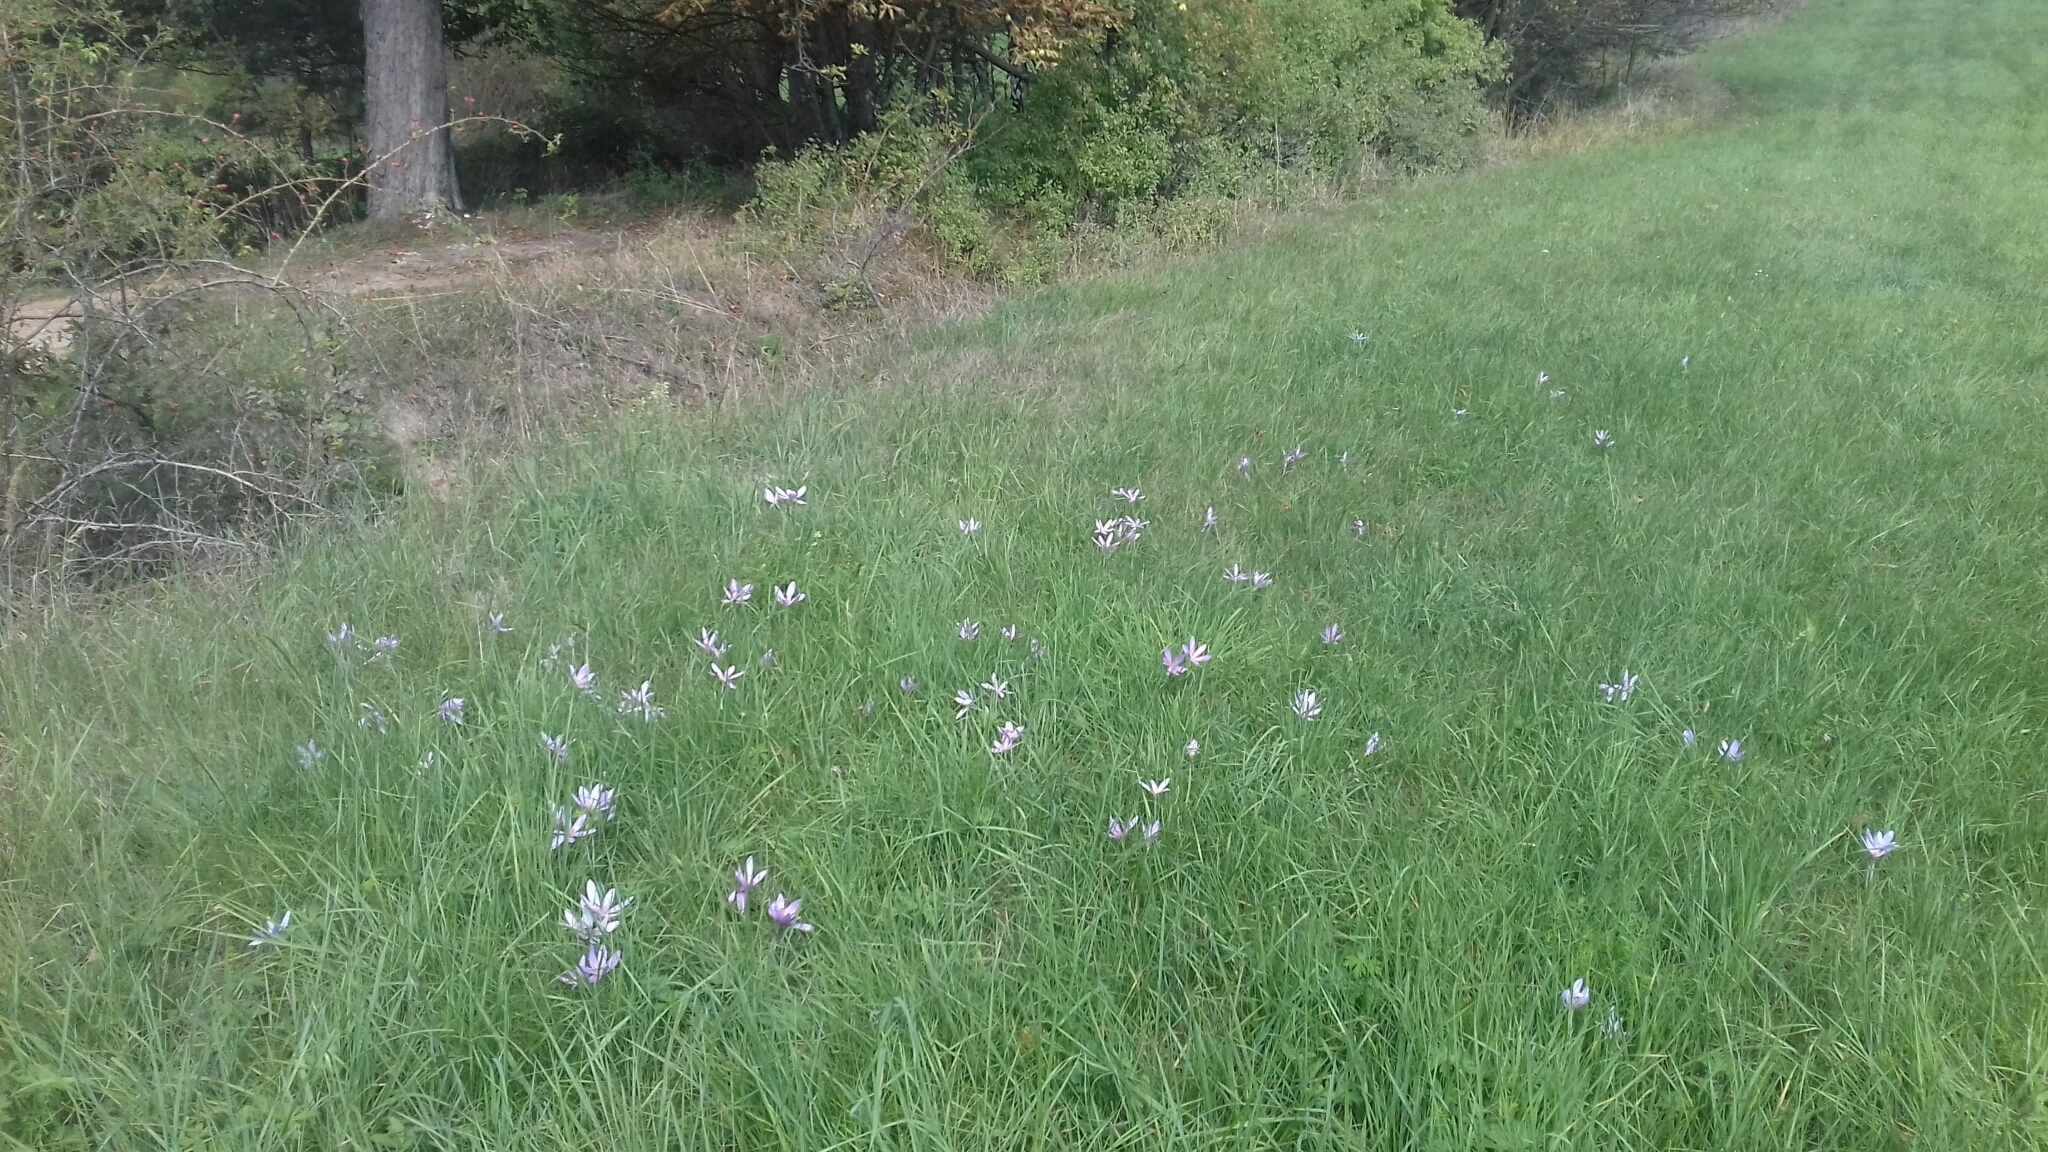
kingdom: Plantae
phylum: Tracheophyta
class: Liliopsida
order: Liliales
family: Colchicaceae
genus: Colchicum
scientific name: Colchicum autumnale
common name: Autumn crocus
